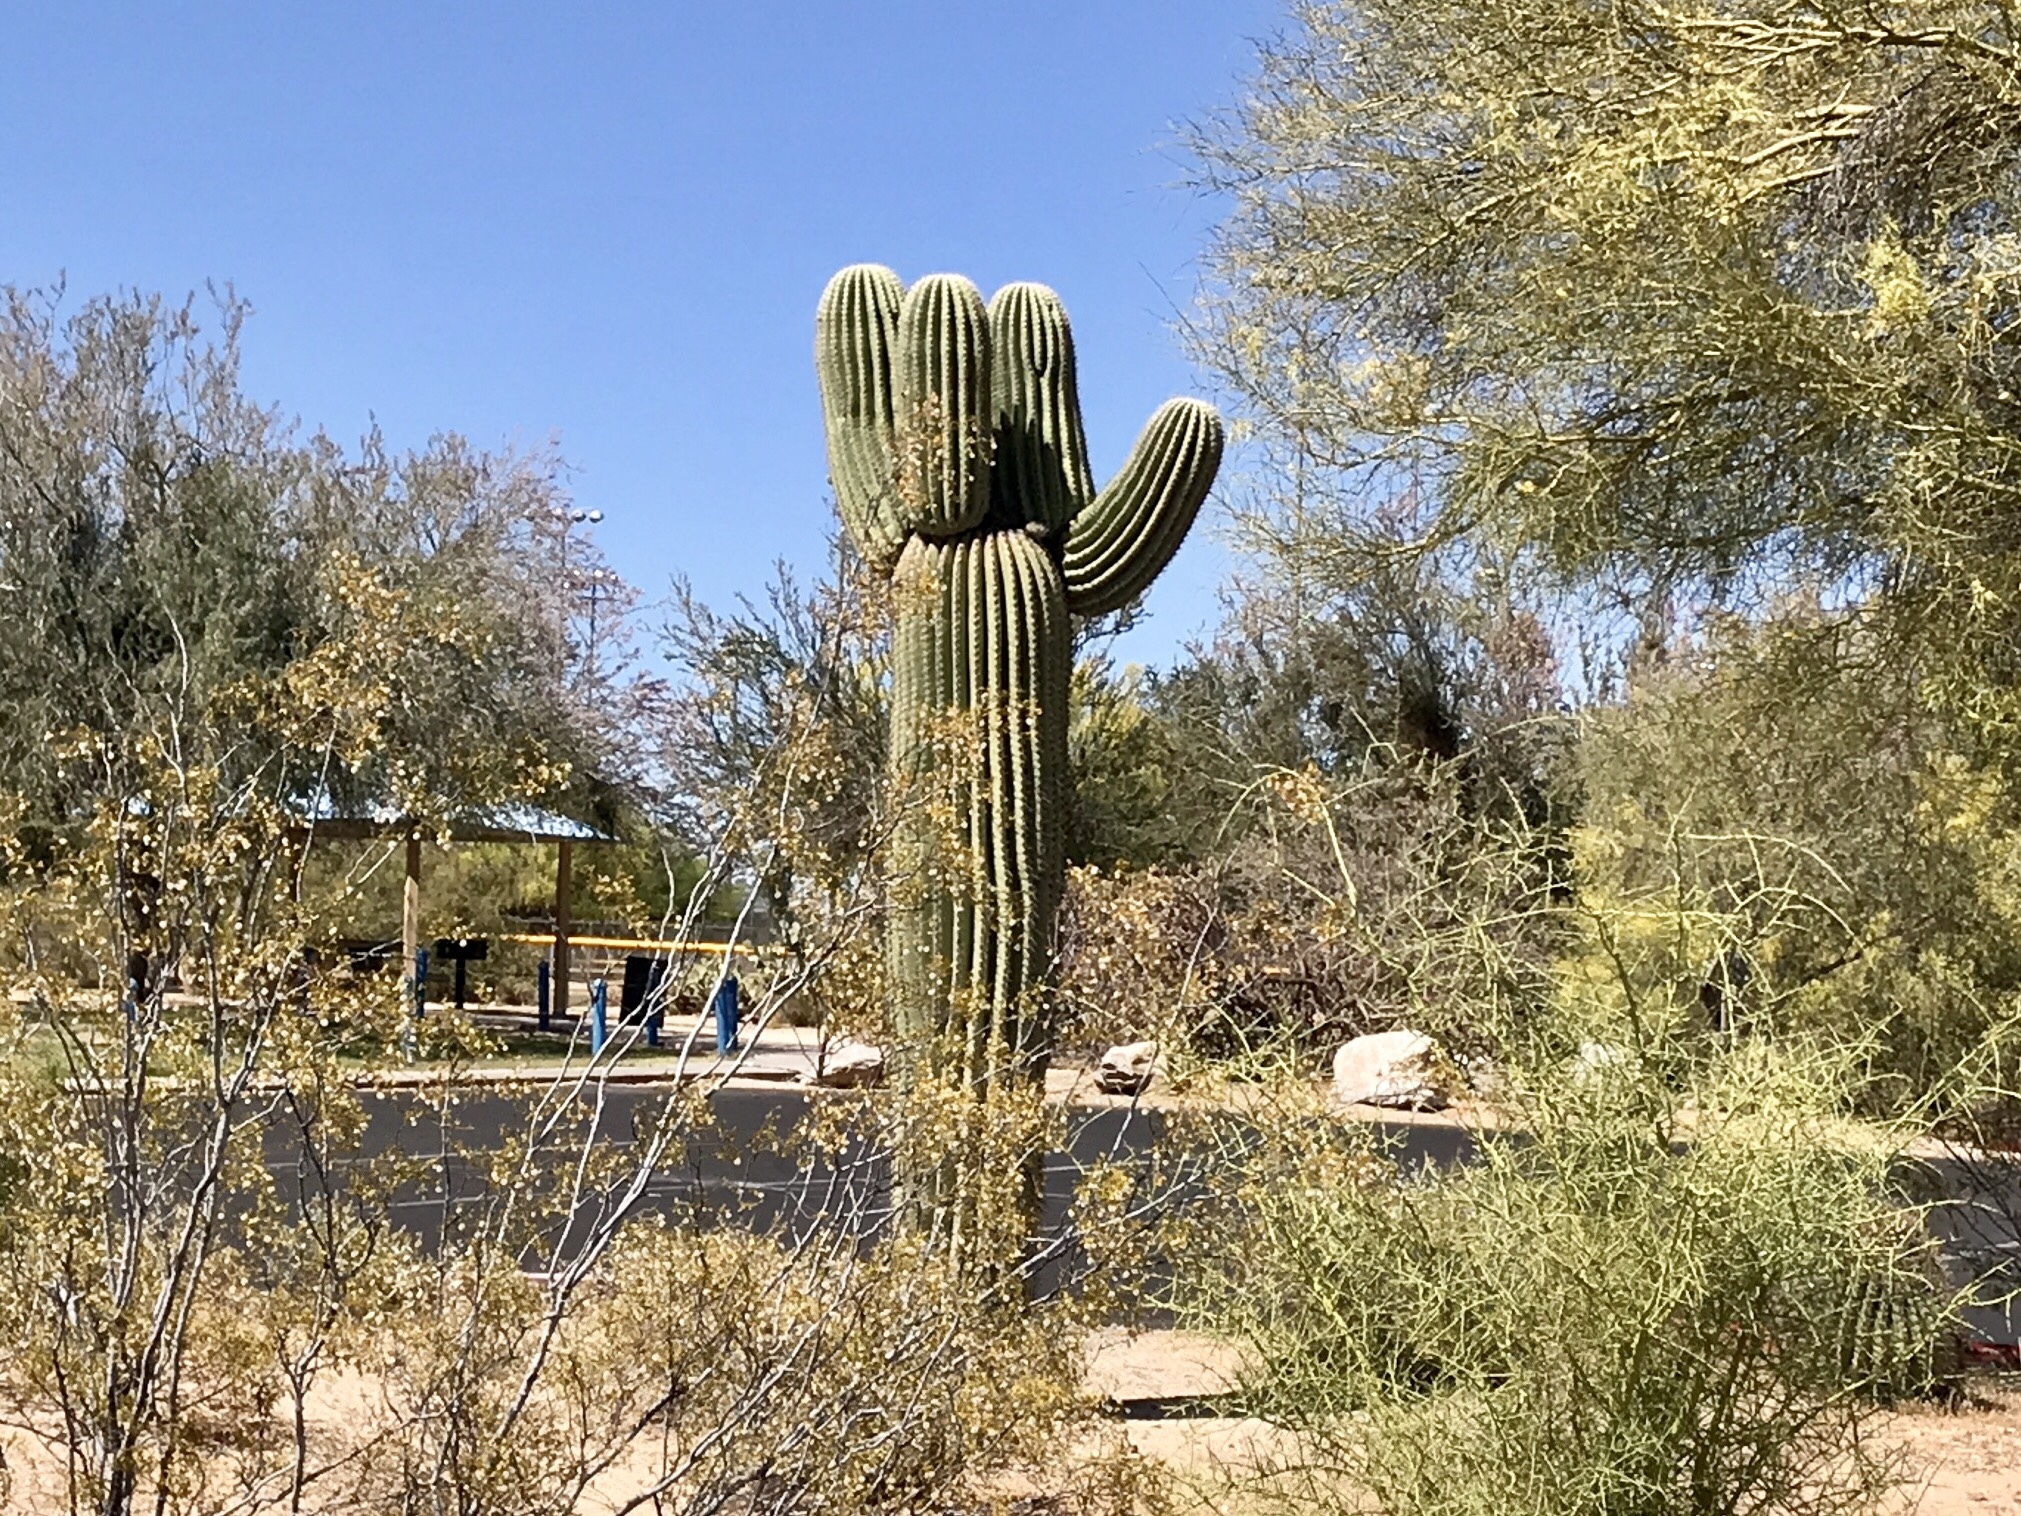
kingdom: Plantae
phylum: Tracheophyta
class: Magnoliopsida
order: Caryophyllales
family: Cactaceae
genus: Carnegiea
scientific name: Carnegiea gigantea
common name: Saguaro
